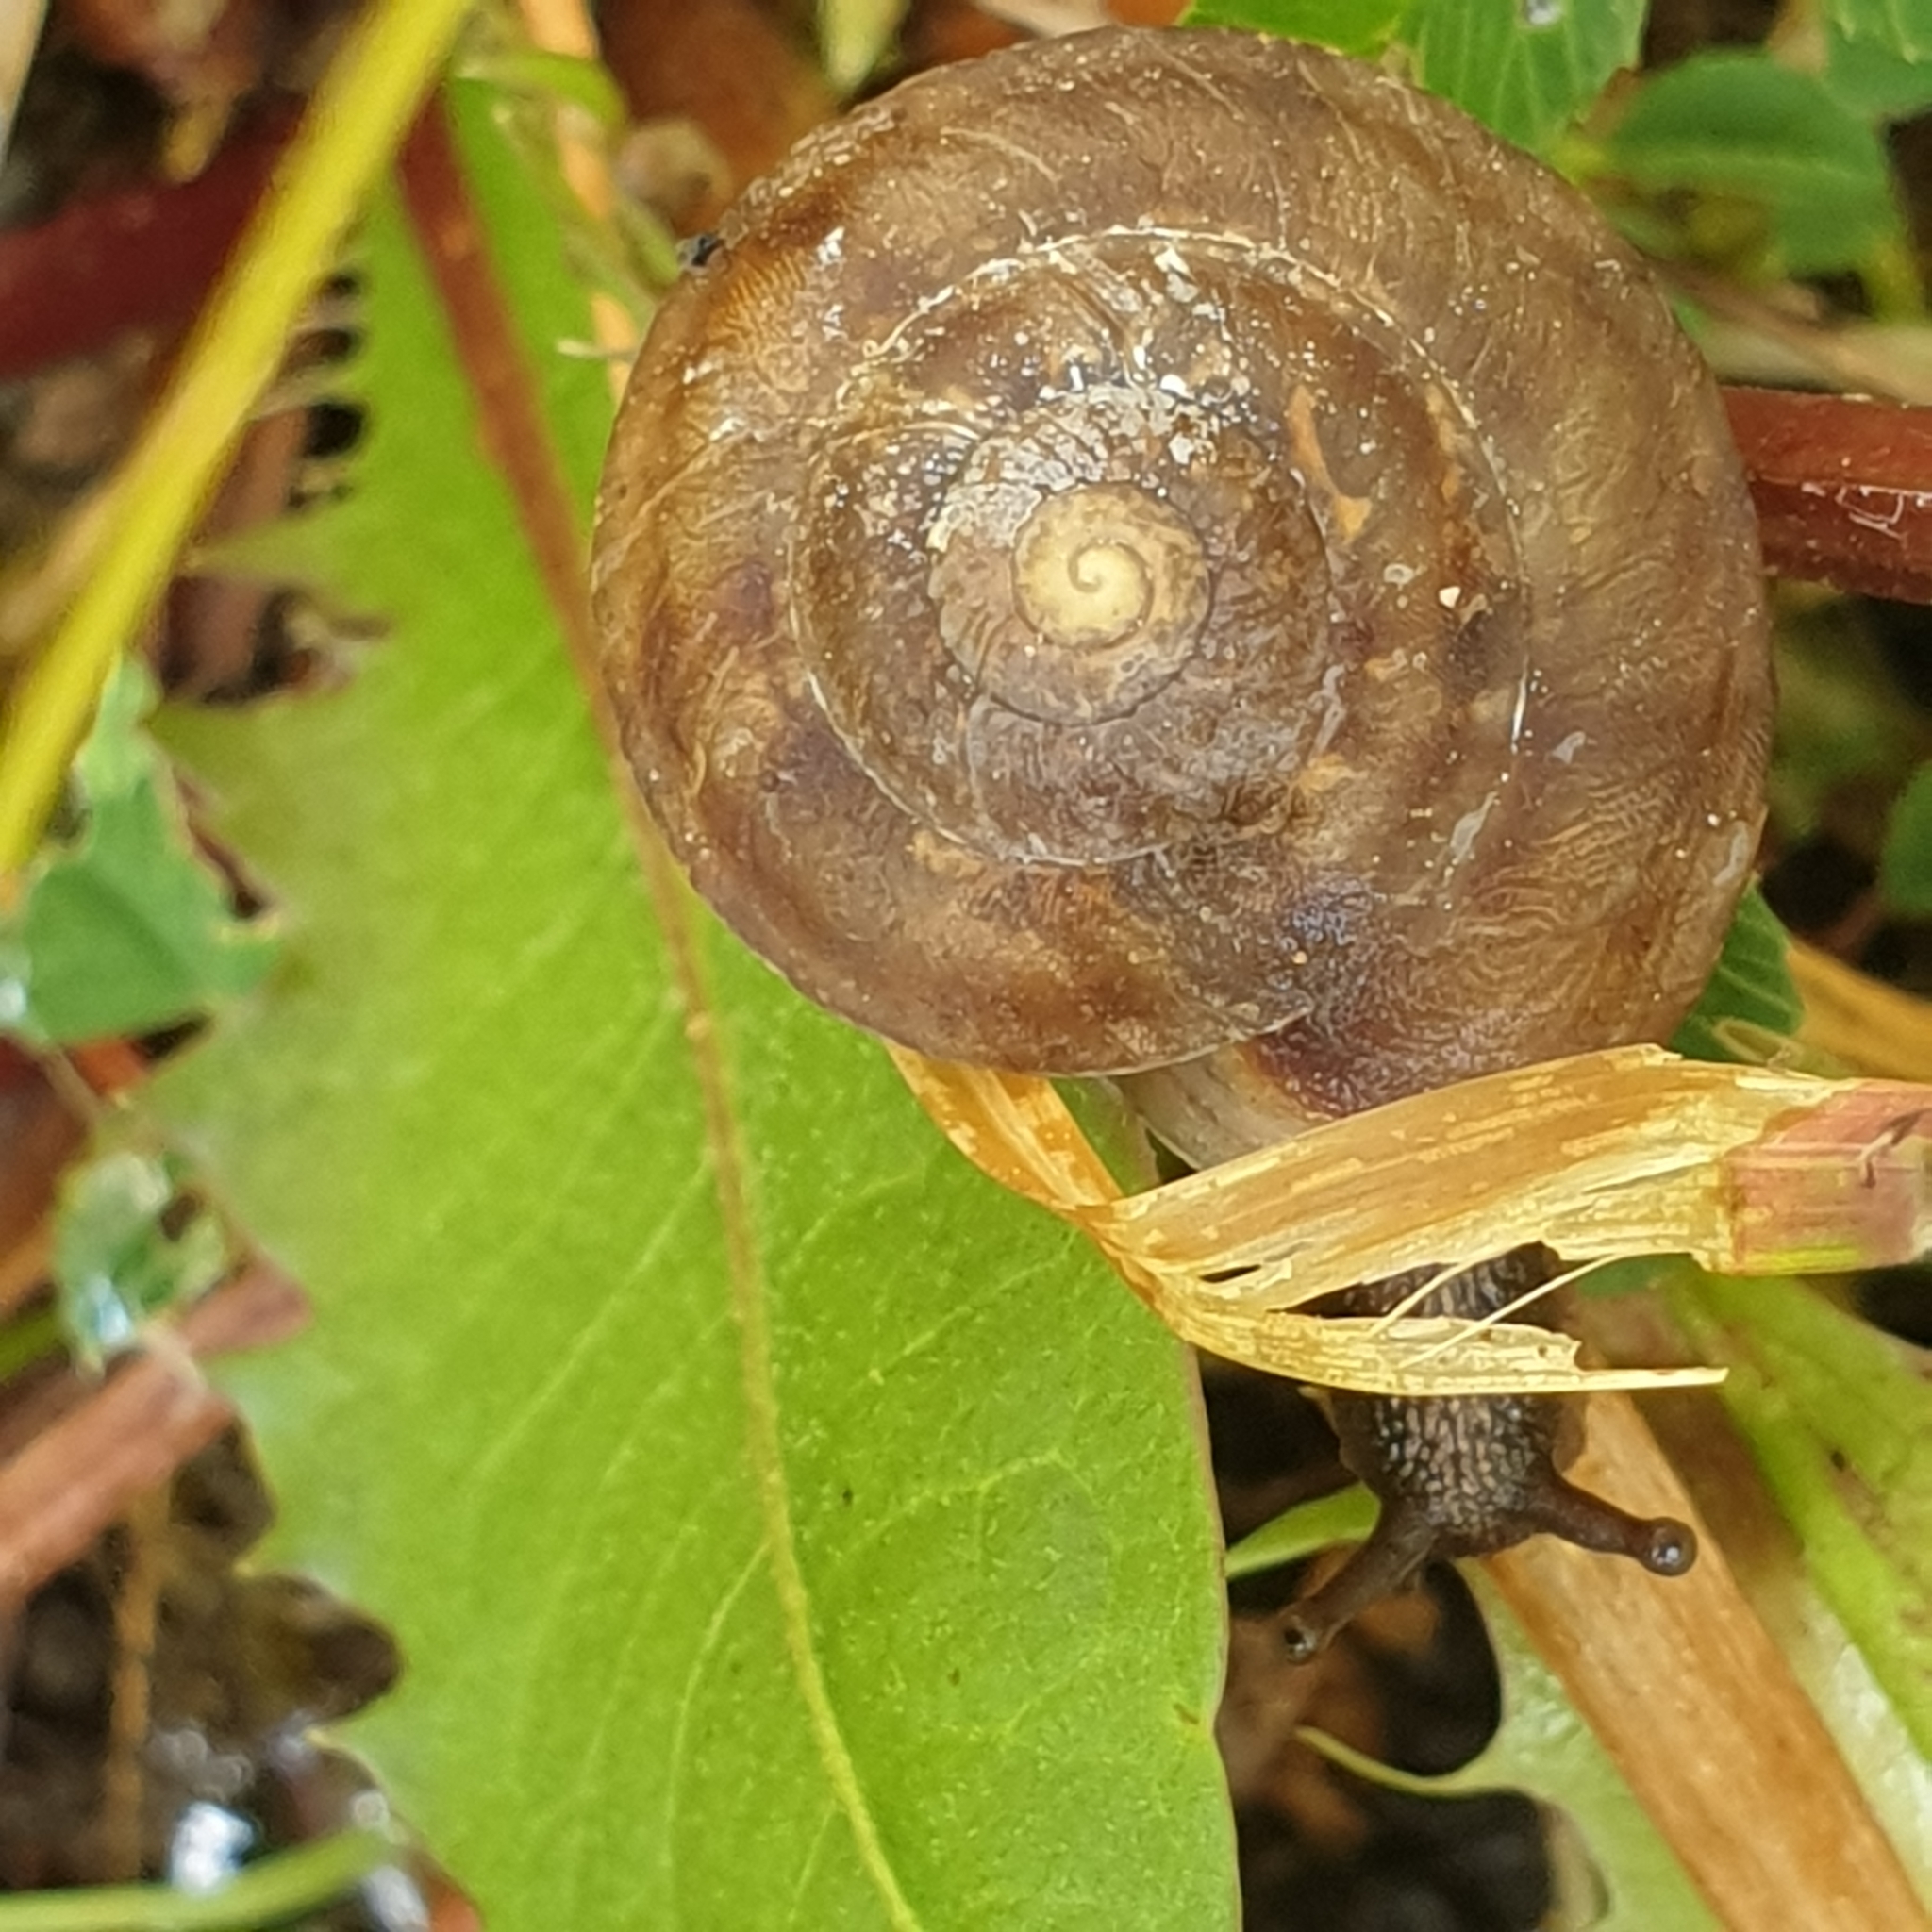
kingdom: Animalia
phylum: Mollusca
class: Gastropoda
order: Stylommatophora
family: Helicidae
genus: Helicigona
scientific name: Helicigona lapicida
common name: Lapidary snail
